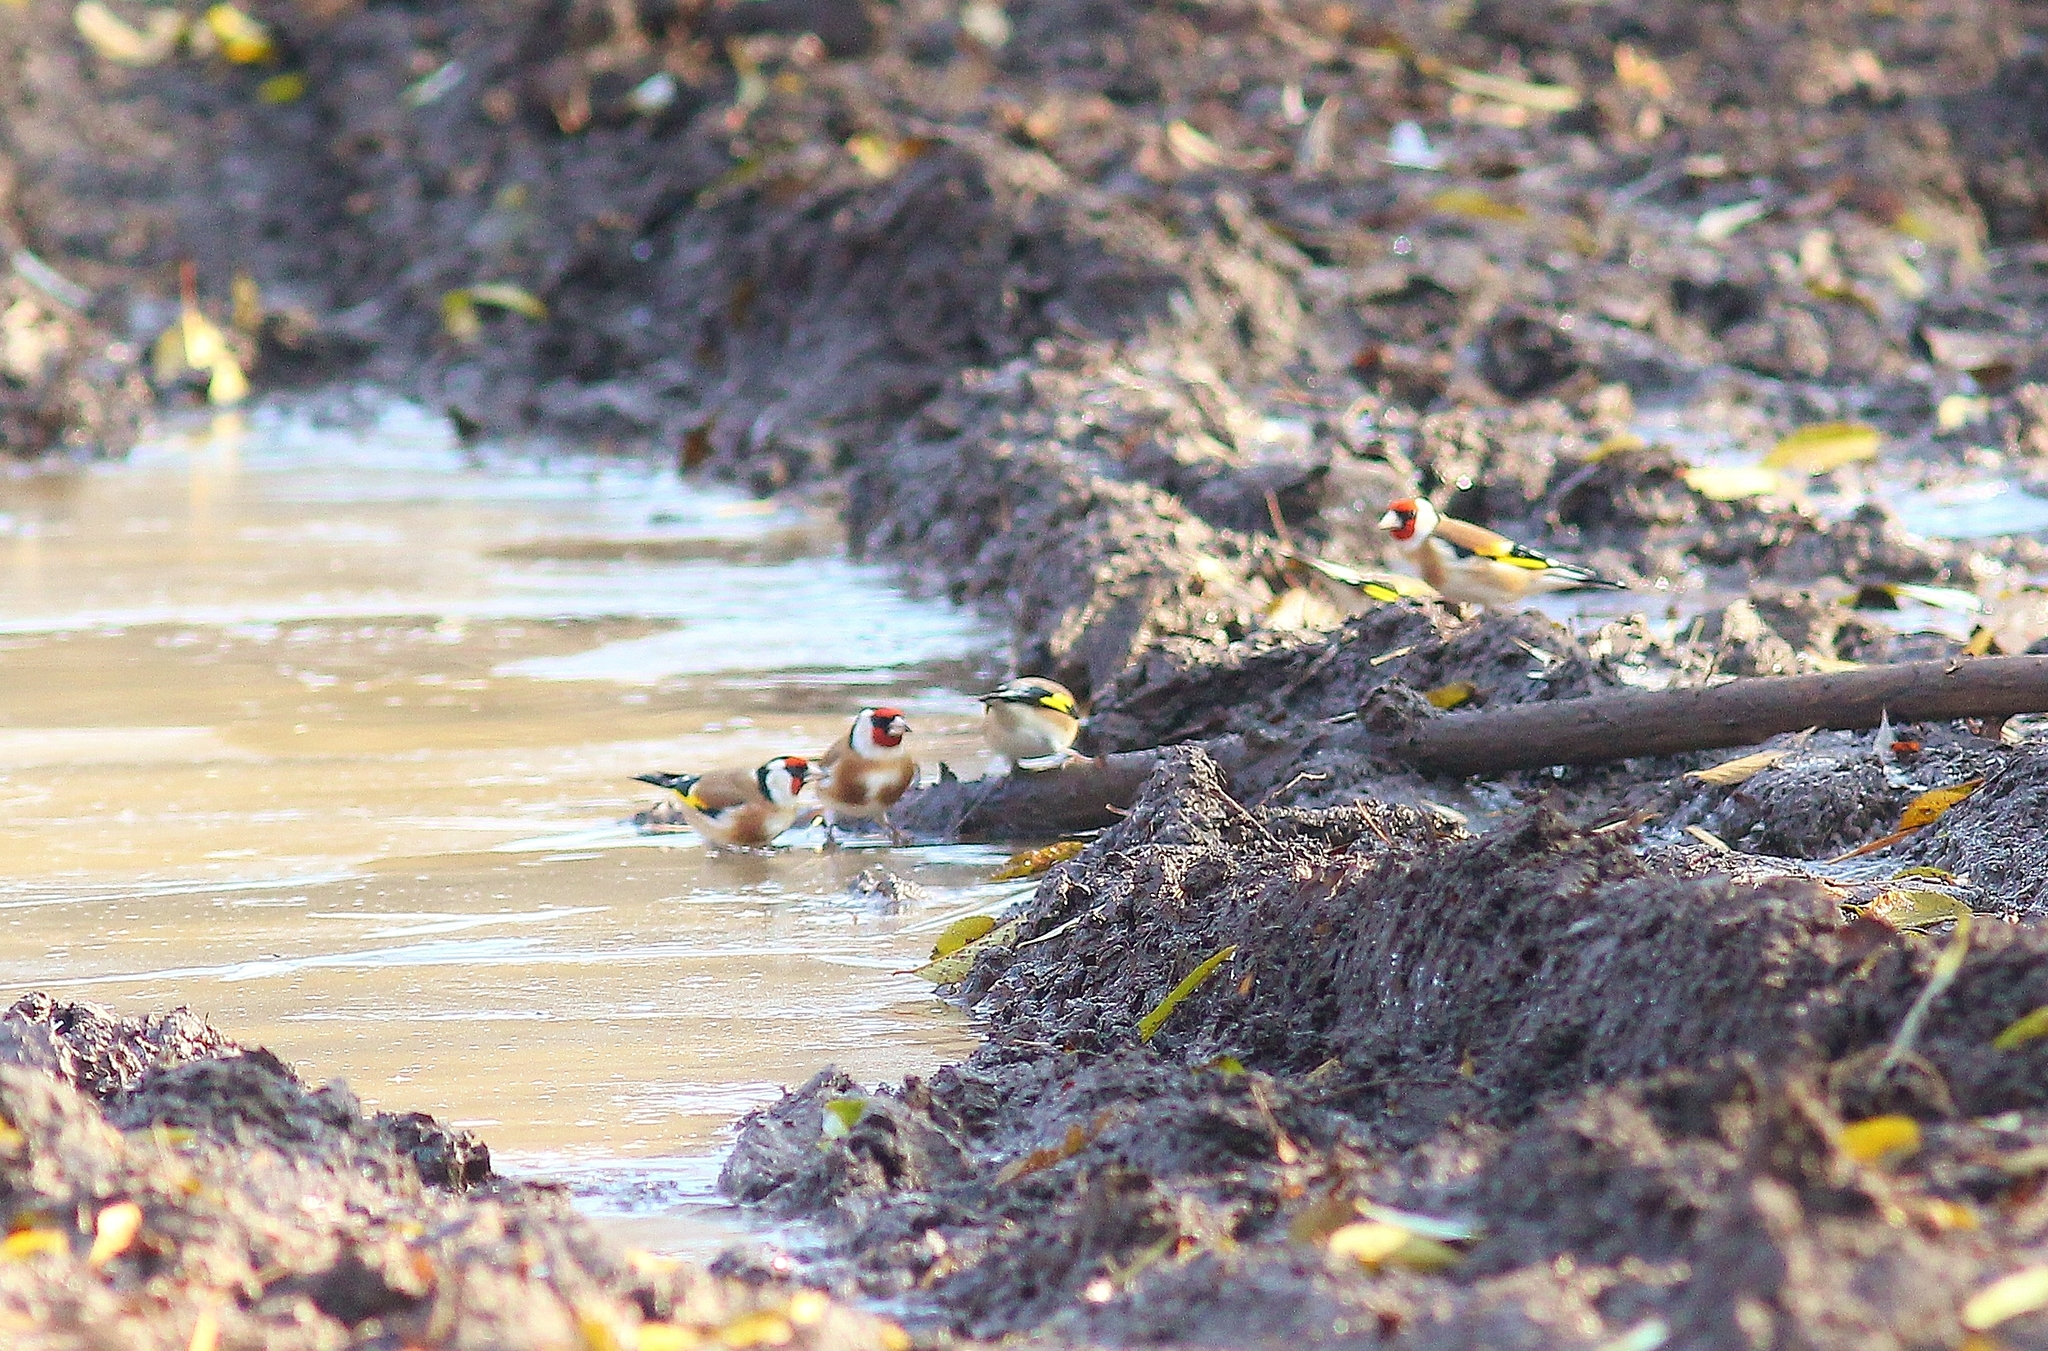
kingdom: Animalia
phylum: Chordata
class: Aves
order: Passeriformes
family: Fringillidae
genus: Carduelis
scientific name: Carduelis carduelis
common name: European goldfinch
